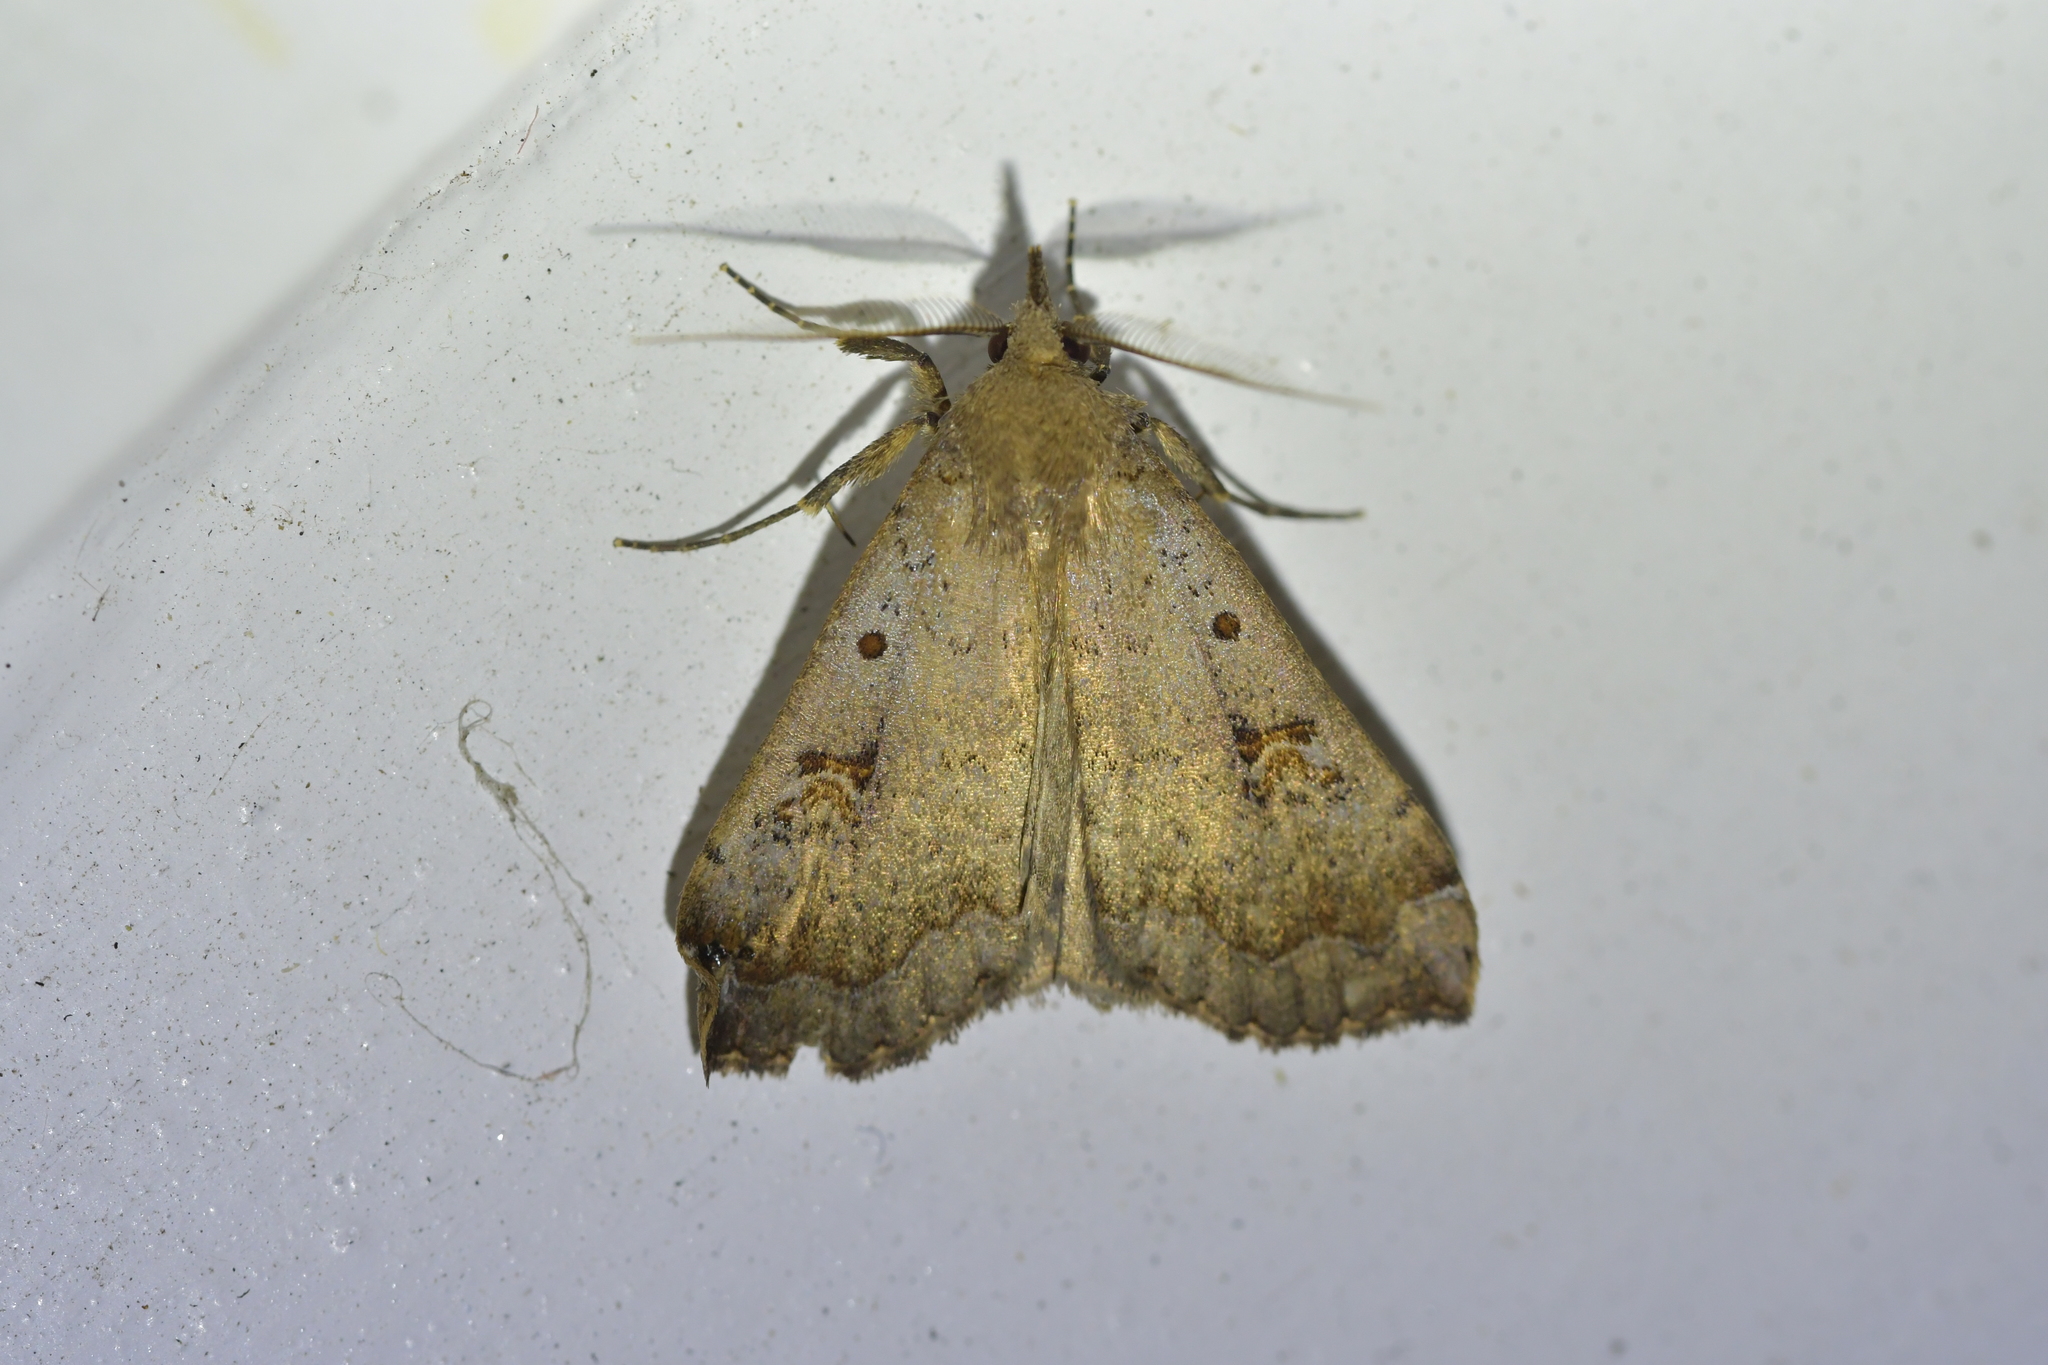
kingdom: Animalia
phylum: Arthropoda
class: Insecta
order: Lepidoptera
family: Erebidae
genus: Rhapsa
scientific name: Rhapsa scotosialis
